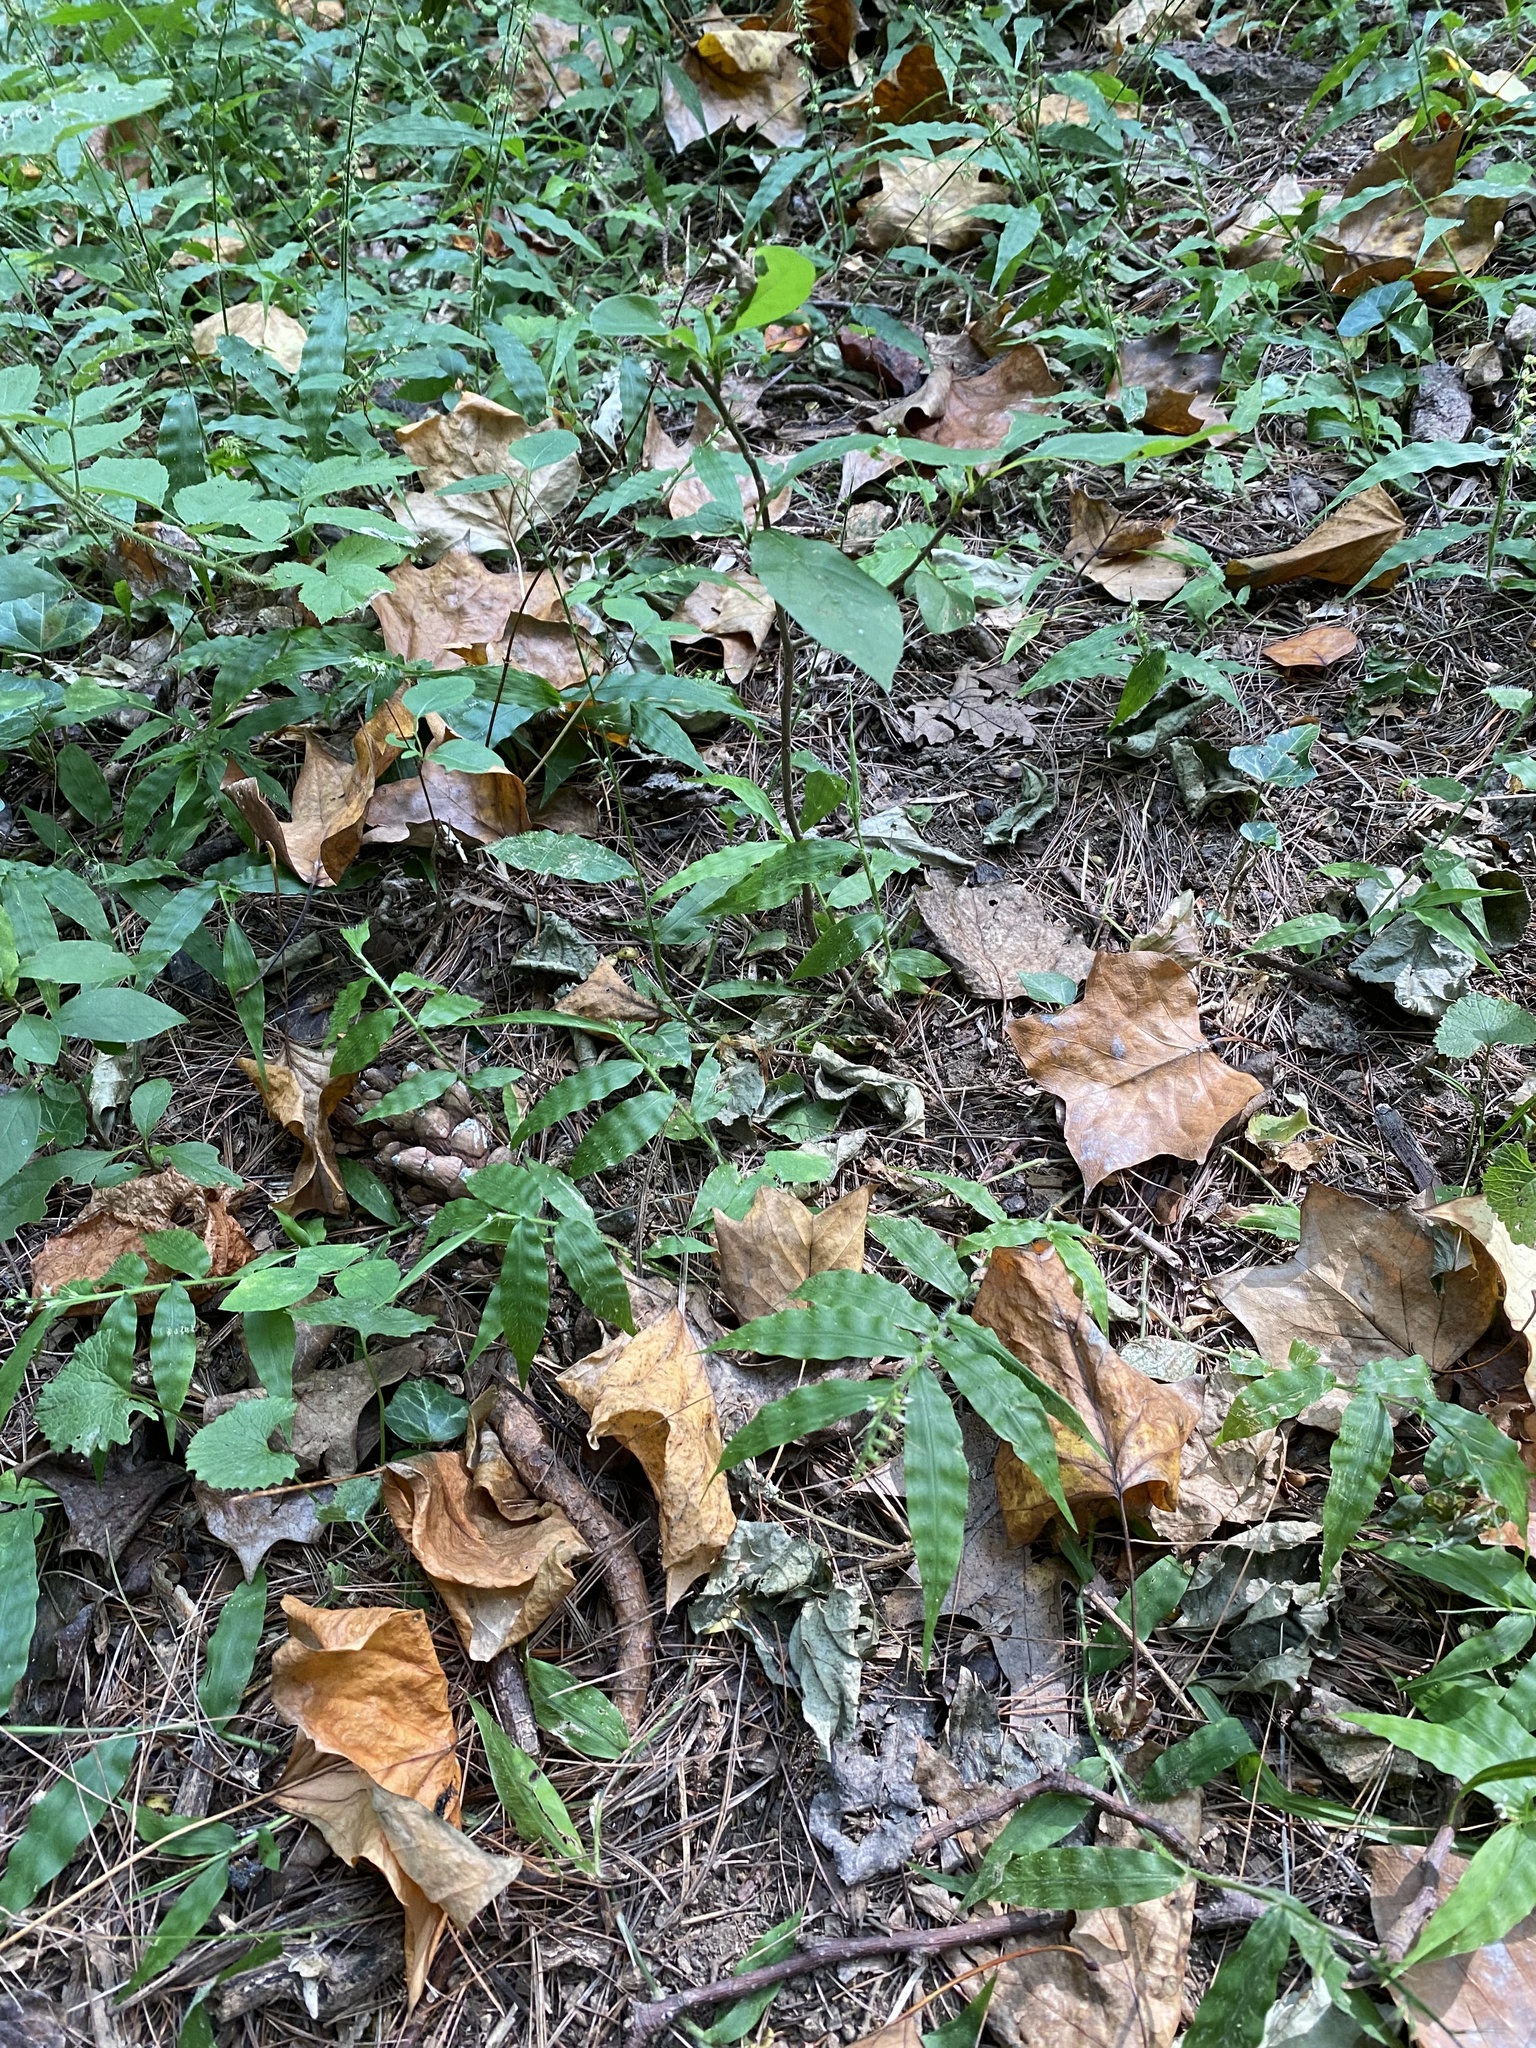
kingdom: Plantae
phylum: Tracheophyta
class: Liliopsida
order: Poales
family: Poaceae
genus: Oplismenus
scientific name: Oplismenus undulatifolius
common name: Wavyleaf basketgrass
